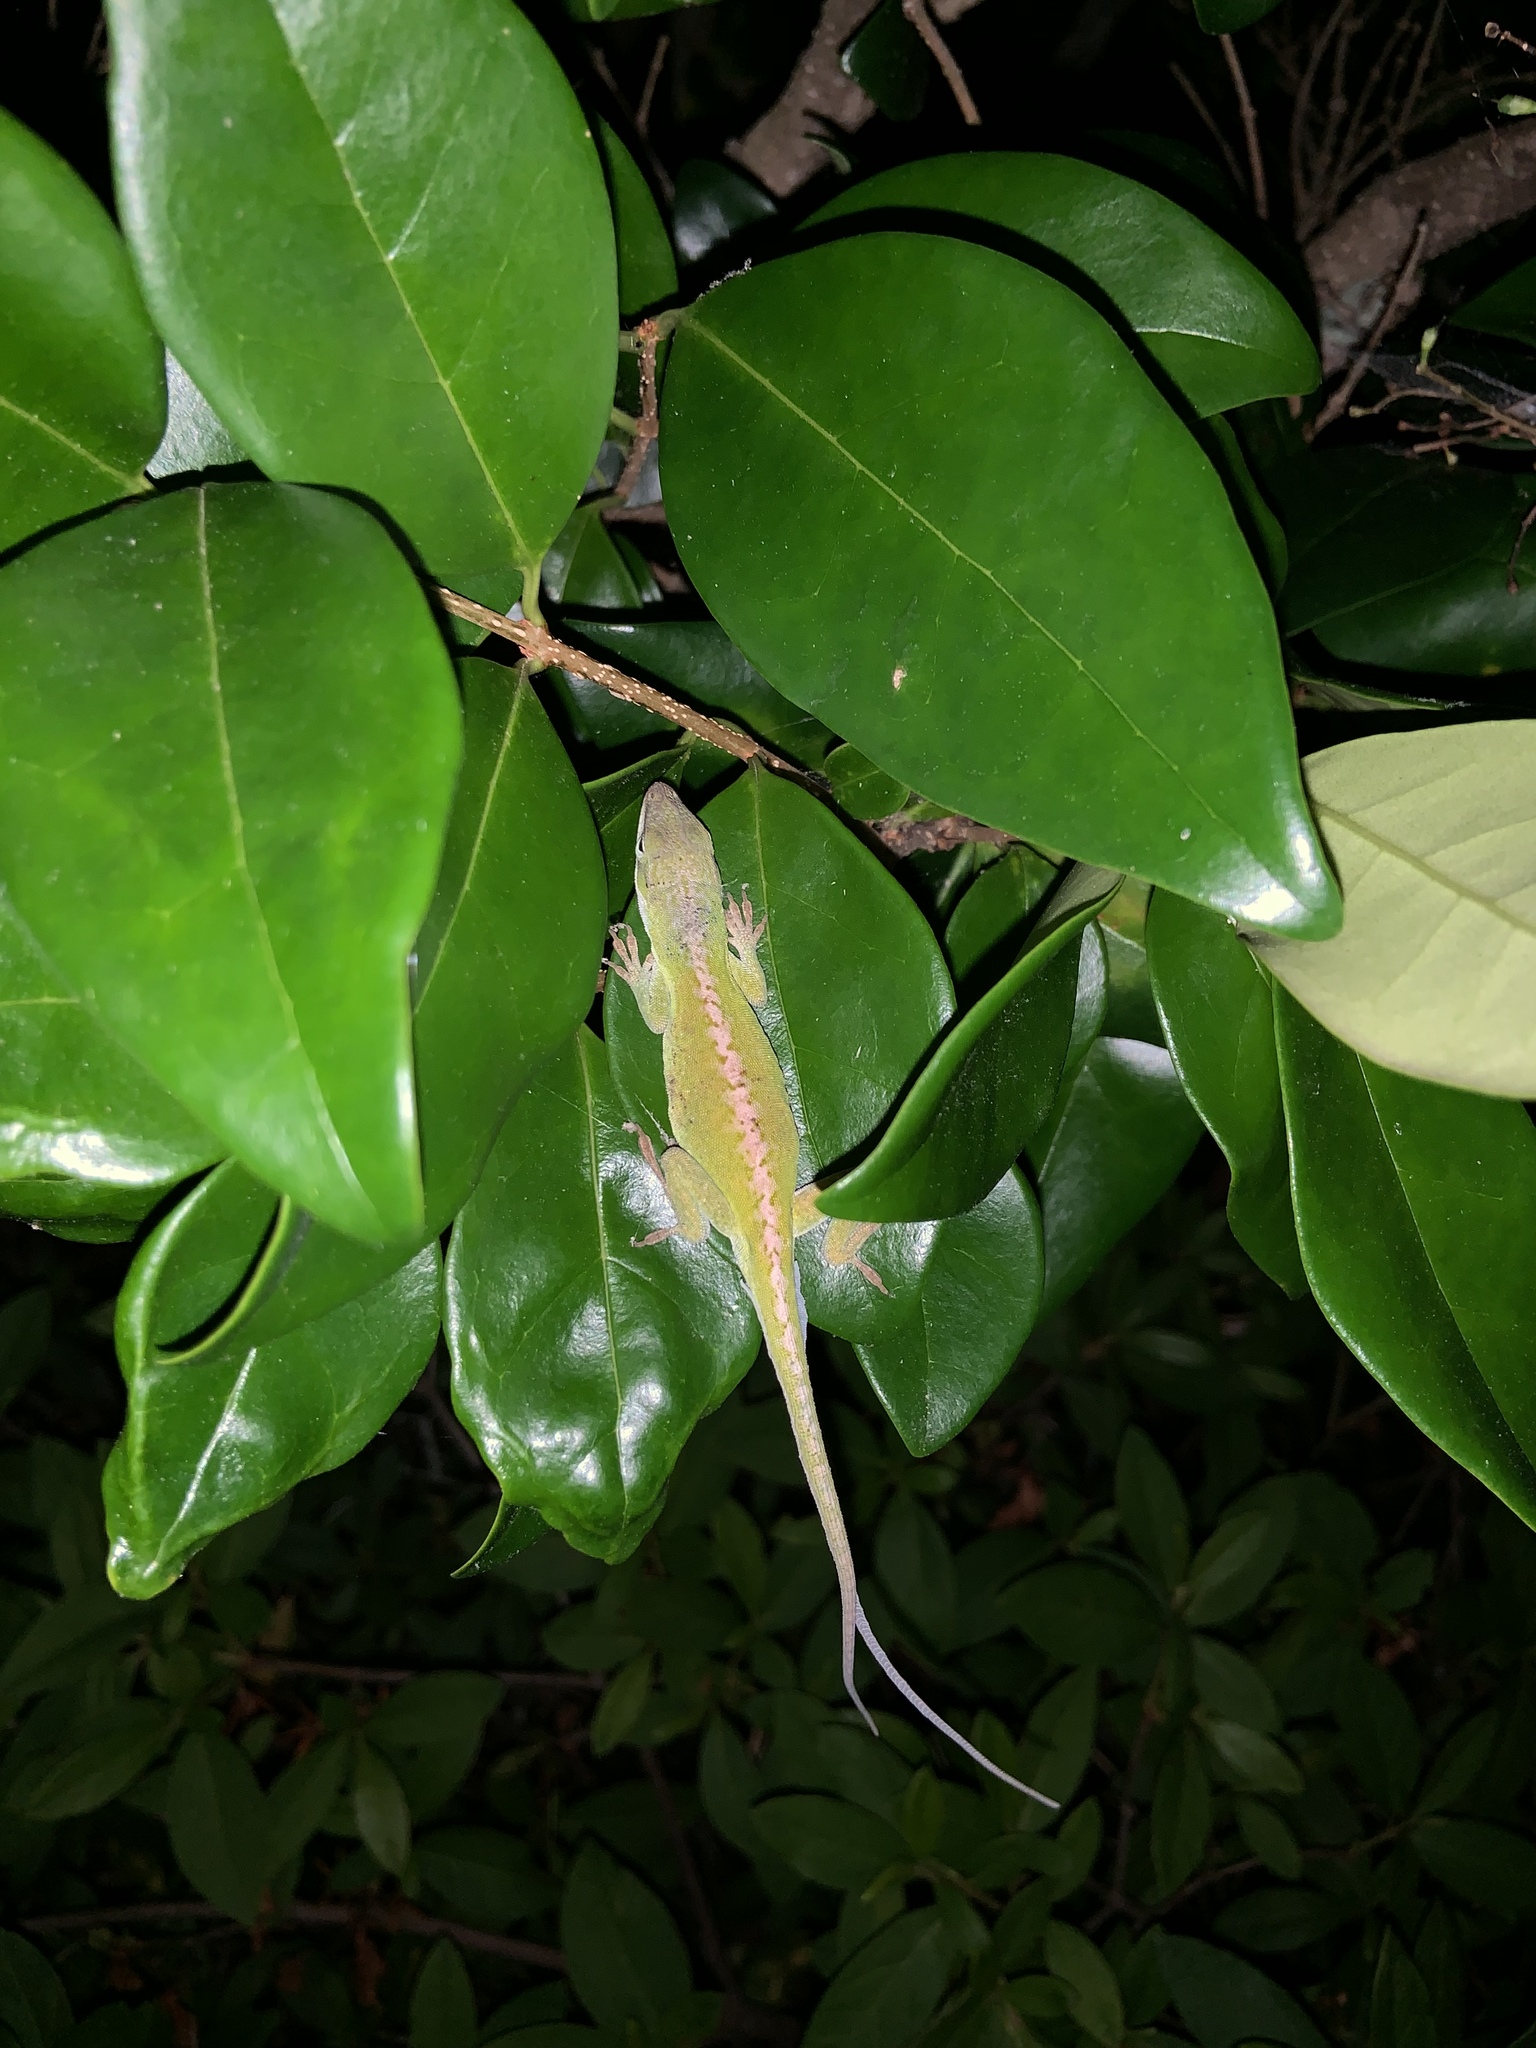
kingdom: Animalia
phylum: Chordata
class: Squamata
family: Dactyloidae
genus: Anolis
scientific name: Anolis carolinensis
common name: Green anole
